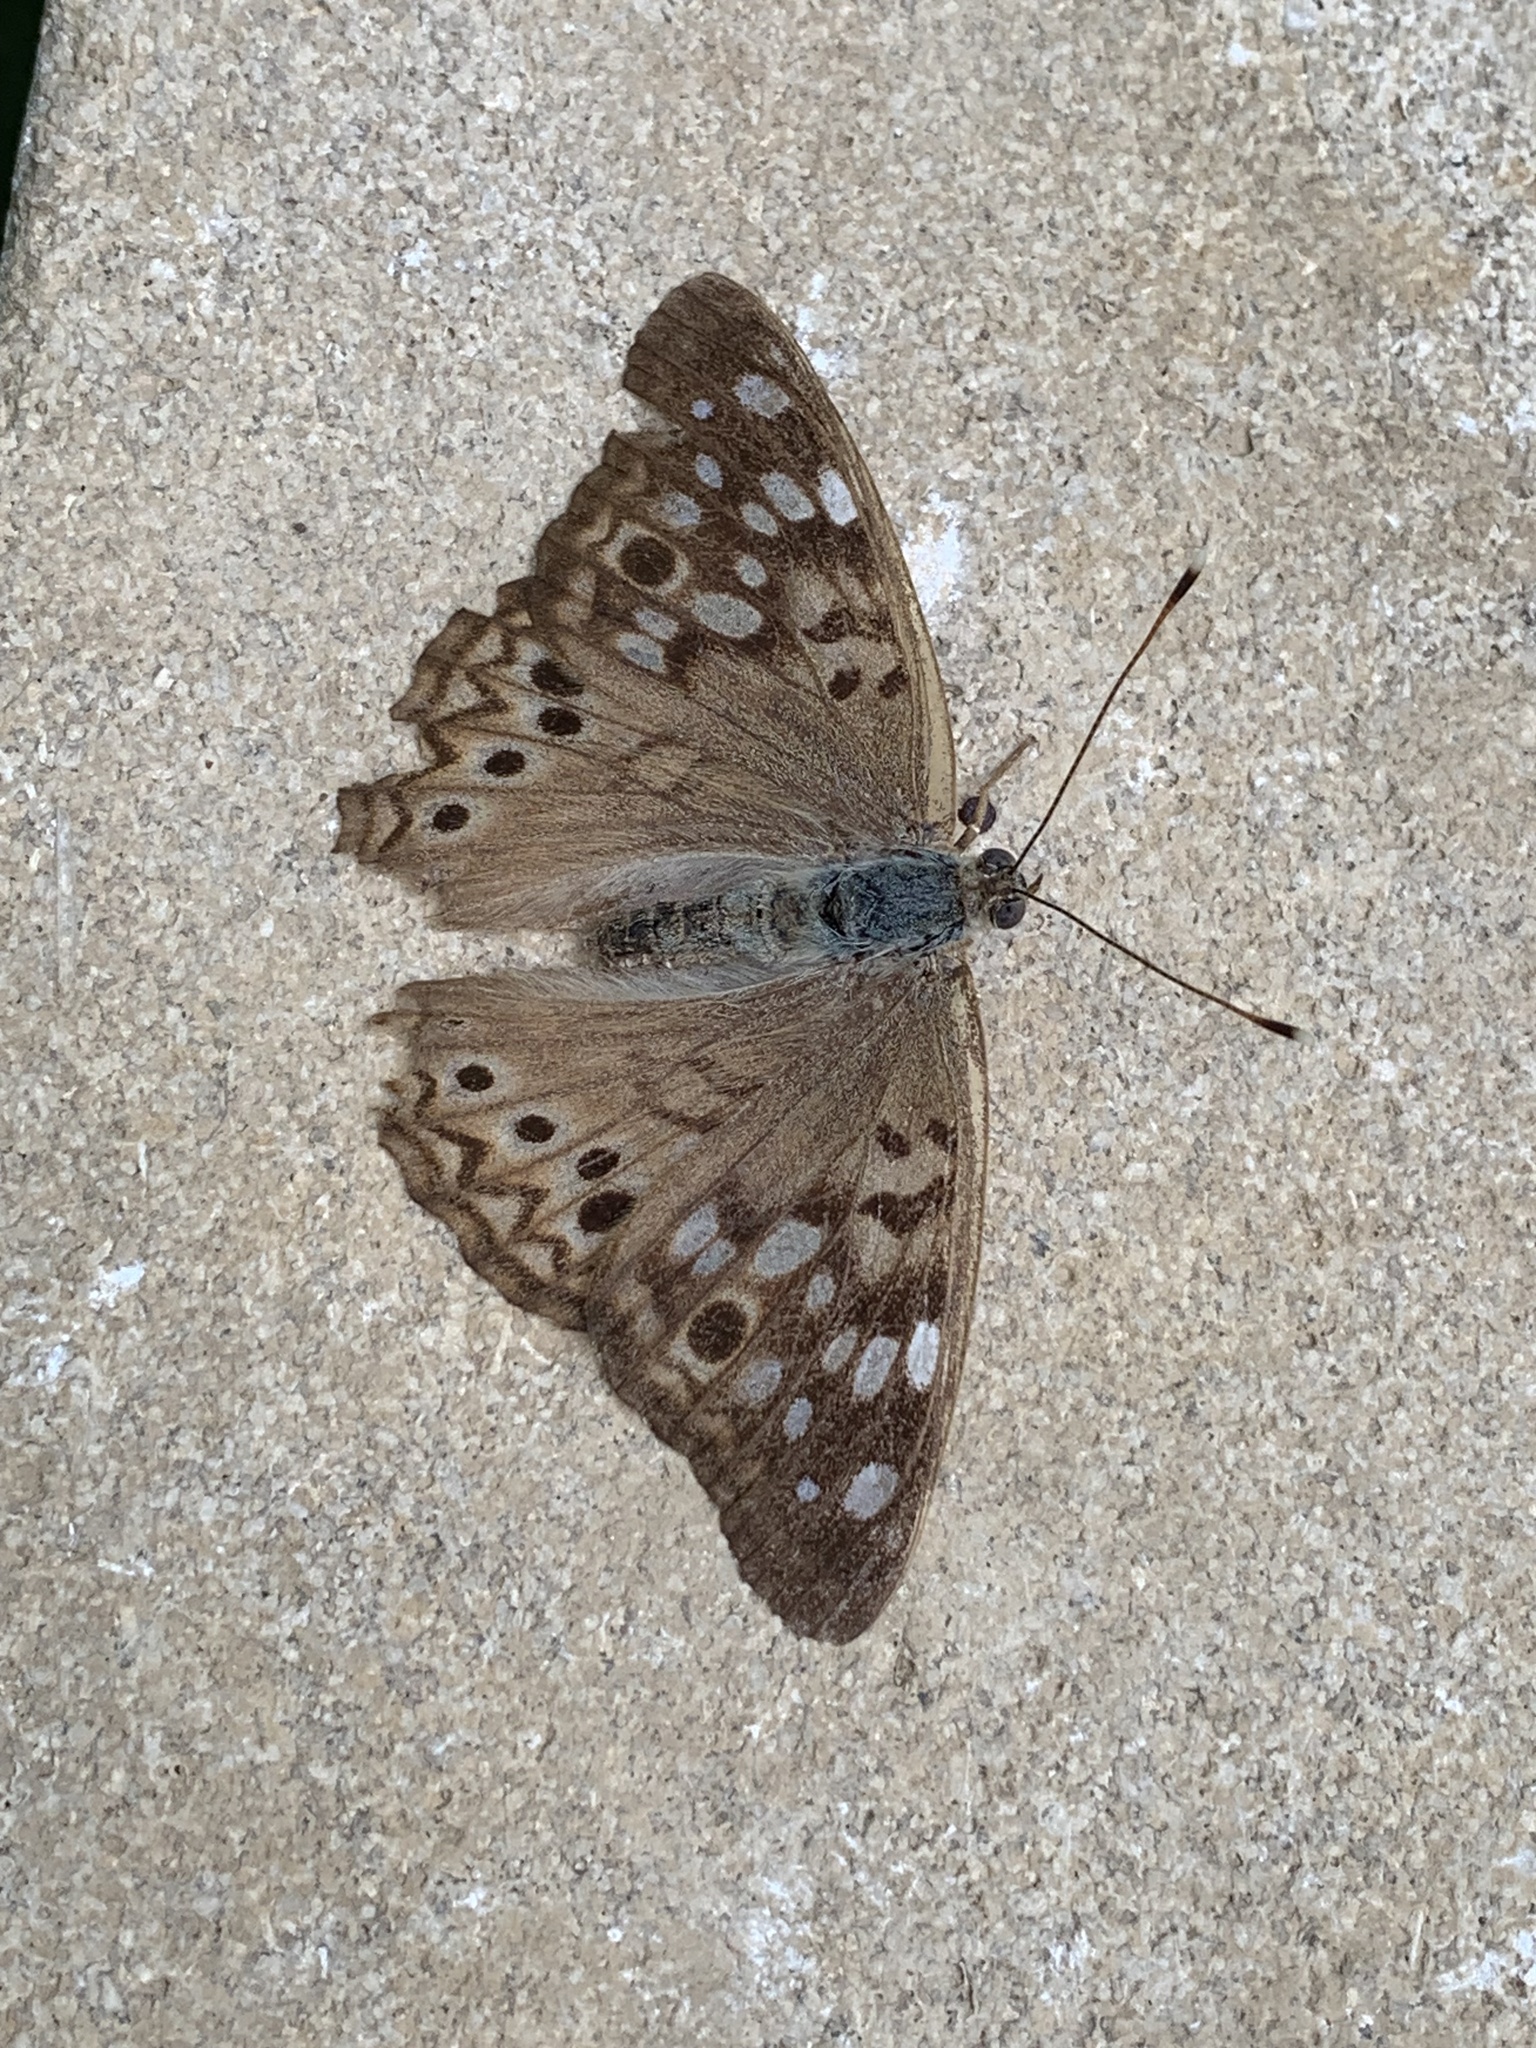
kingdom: Animalia
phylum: Arthropoda
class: Insecta
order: Lepidoptera
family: Nymphalidae
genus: Asterocampa
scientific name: Asterocampa celtis
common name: Hackberry emperor
